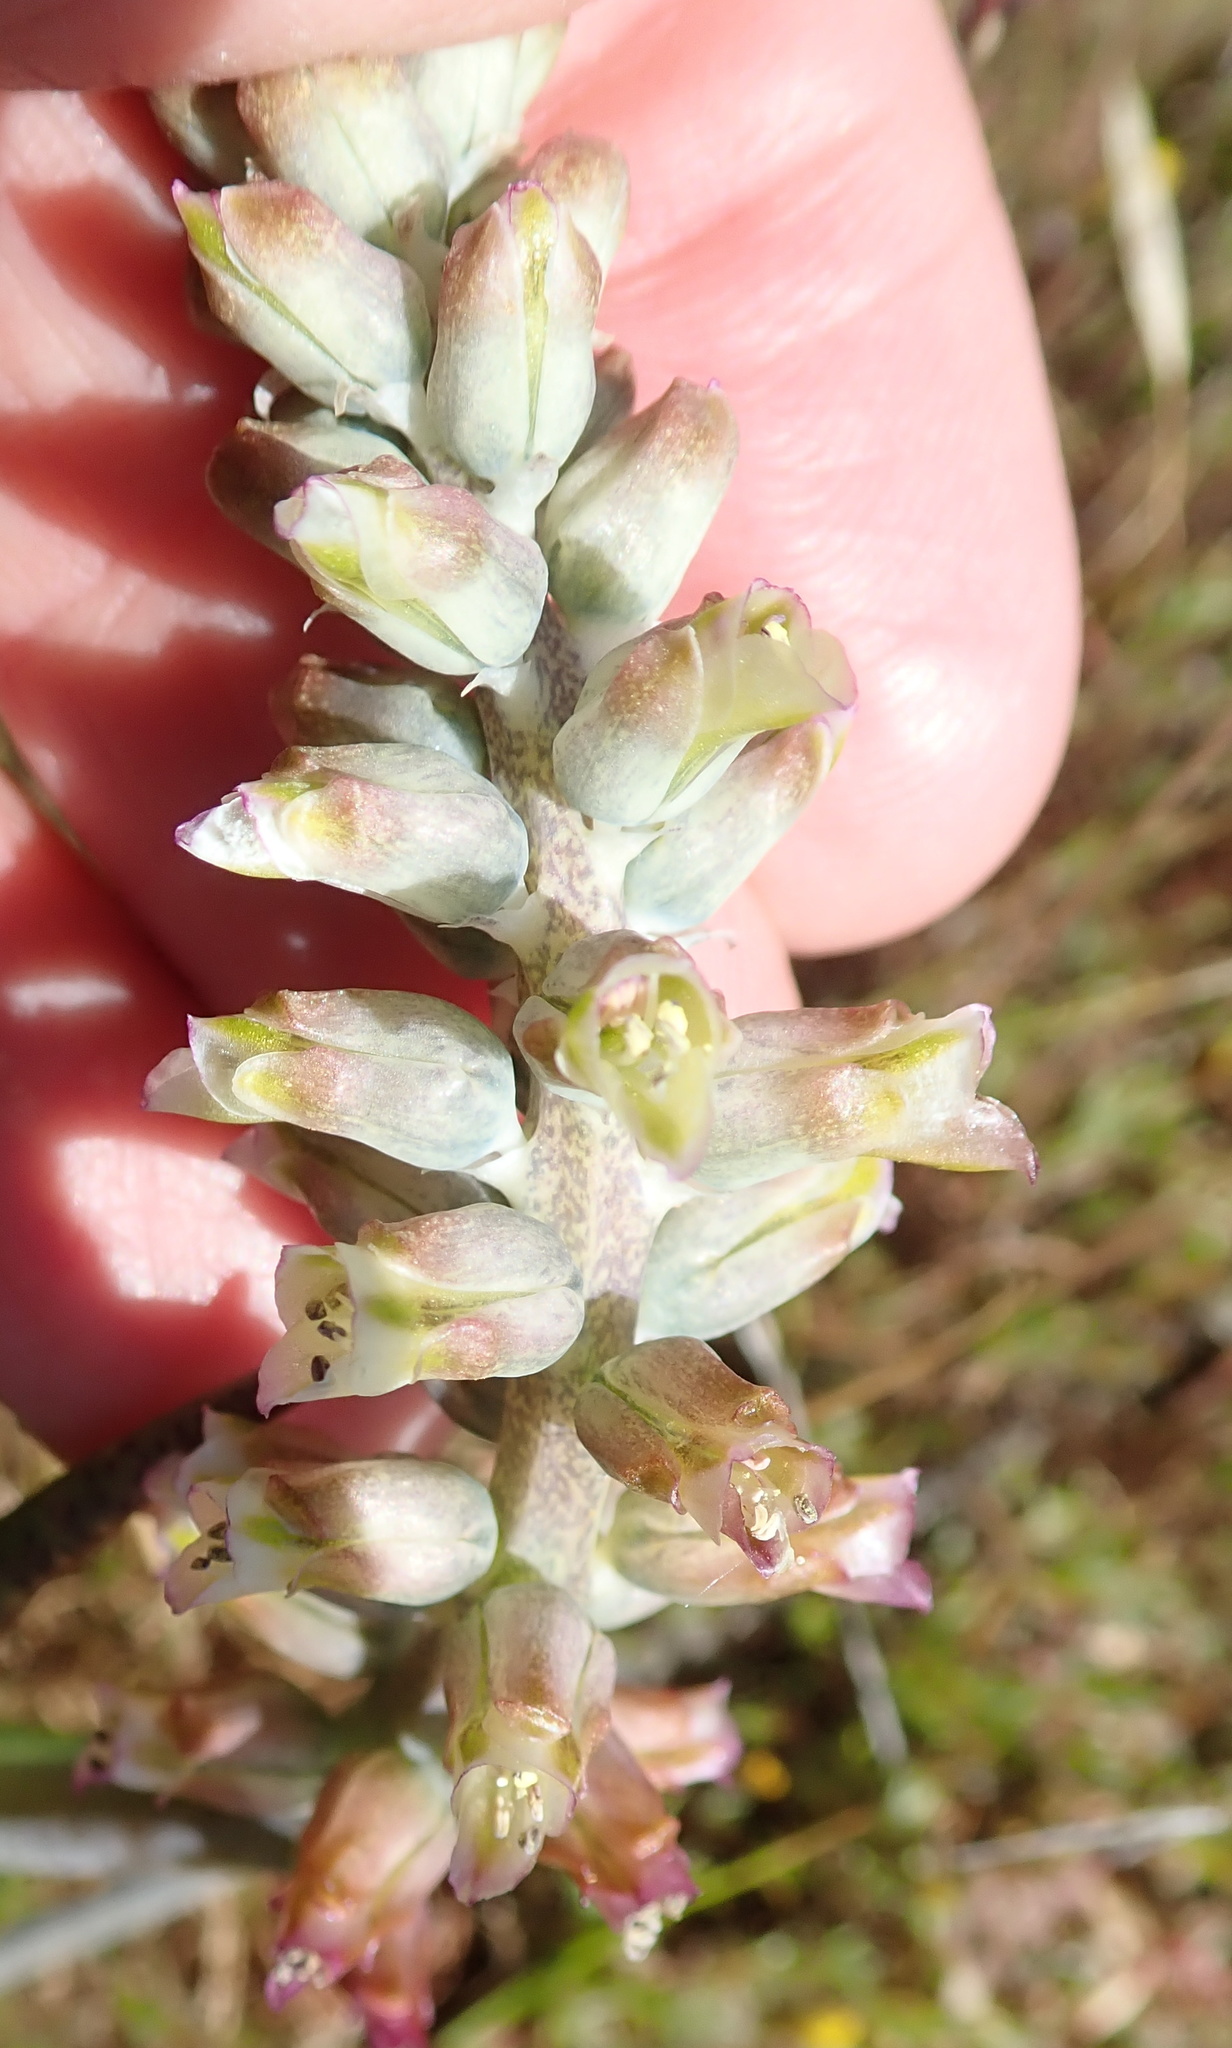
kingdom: Plantae
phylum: Tracheophyta
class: Liliopsida
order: Asparagales
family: Asparagaceae
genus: Lachenalia
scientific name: Lachenalia neilii
